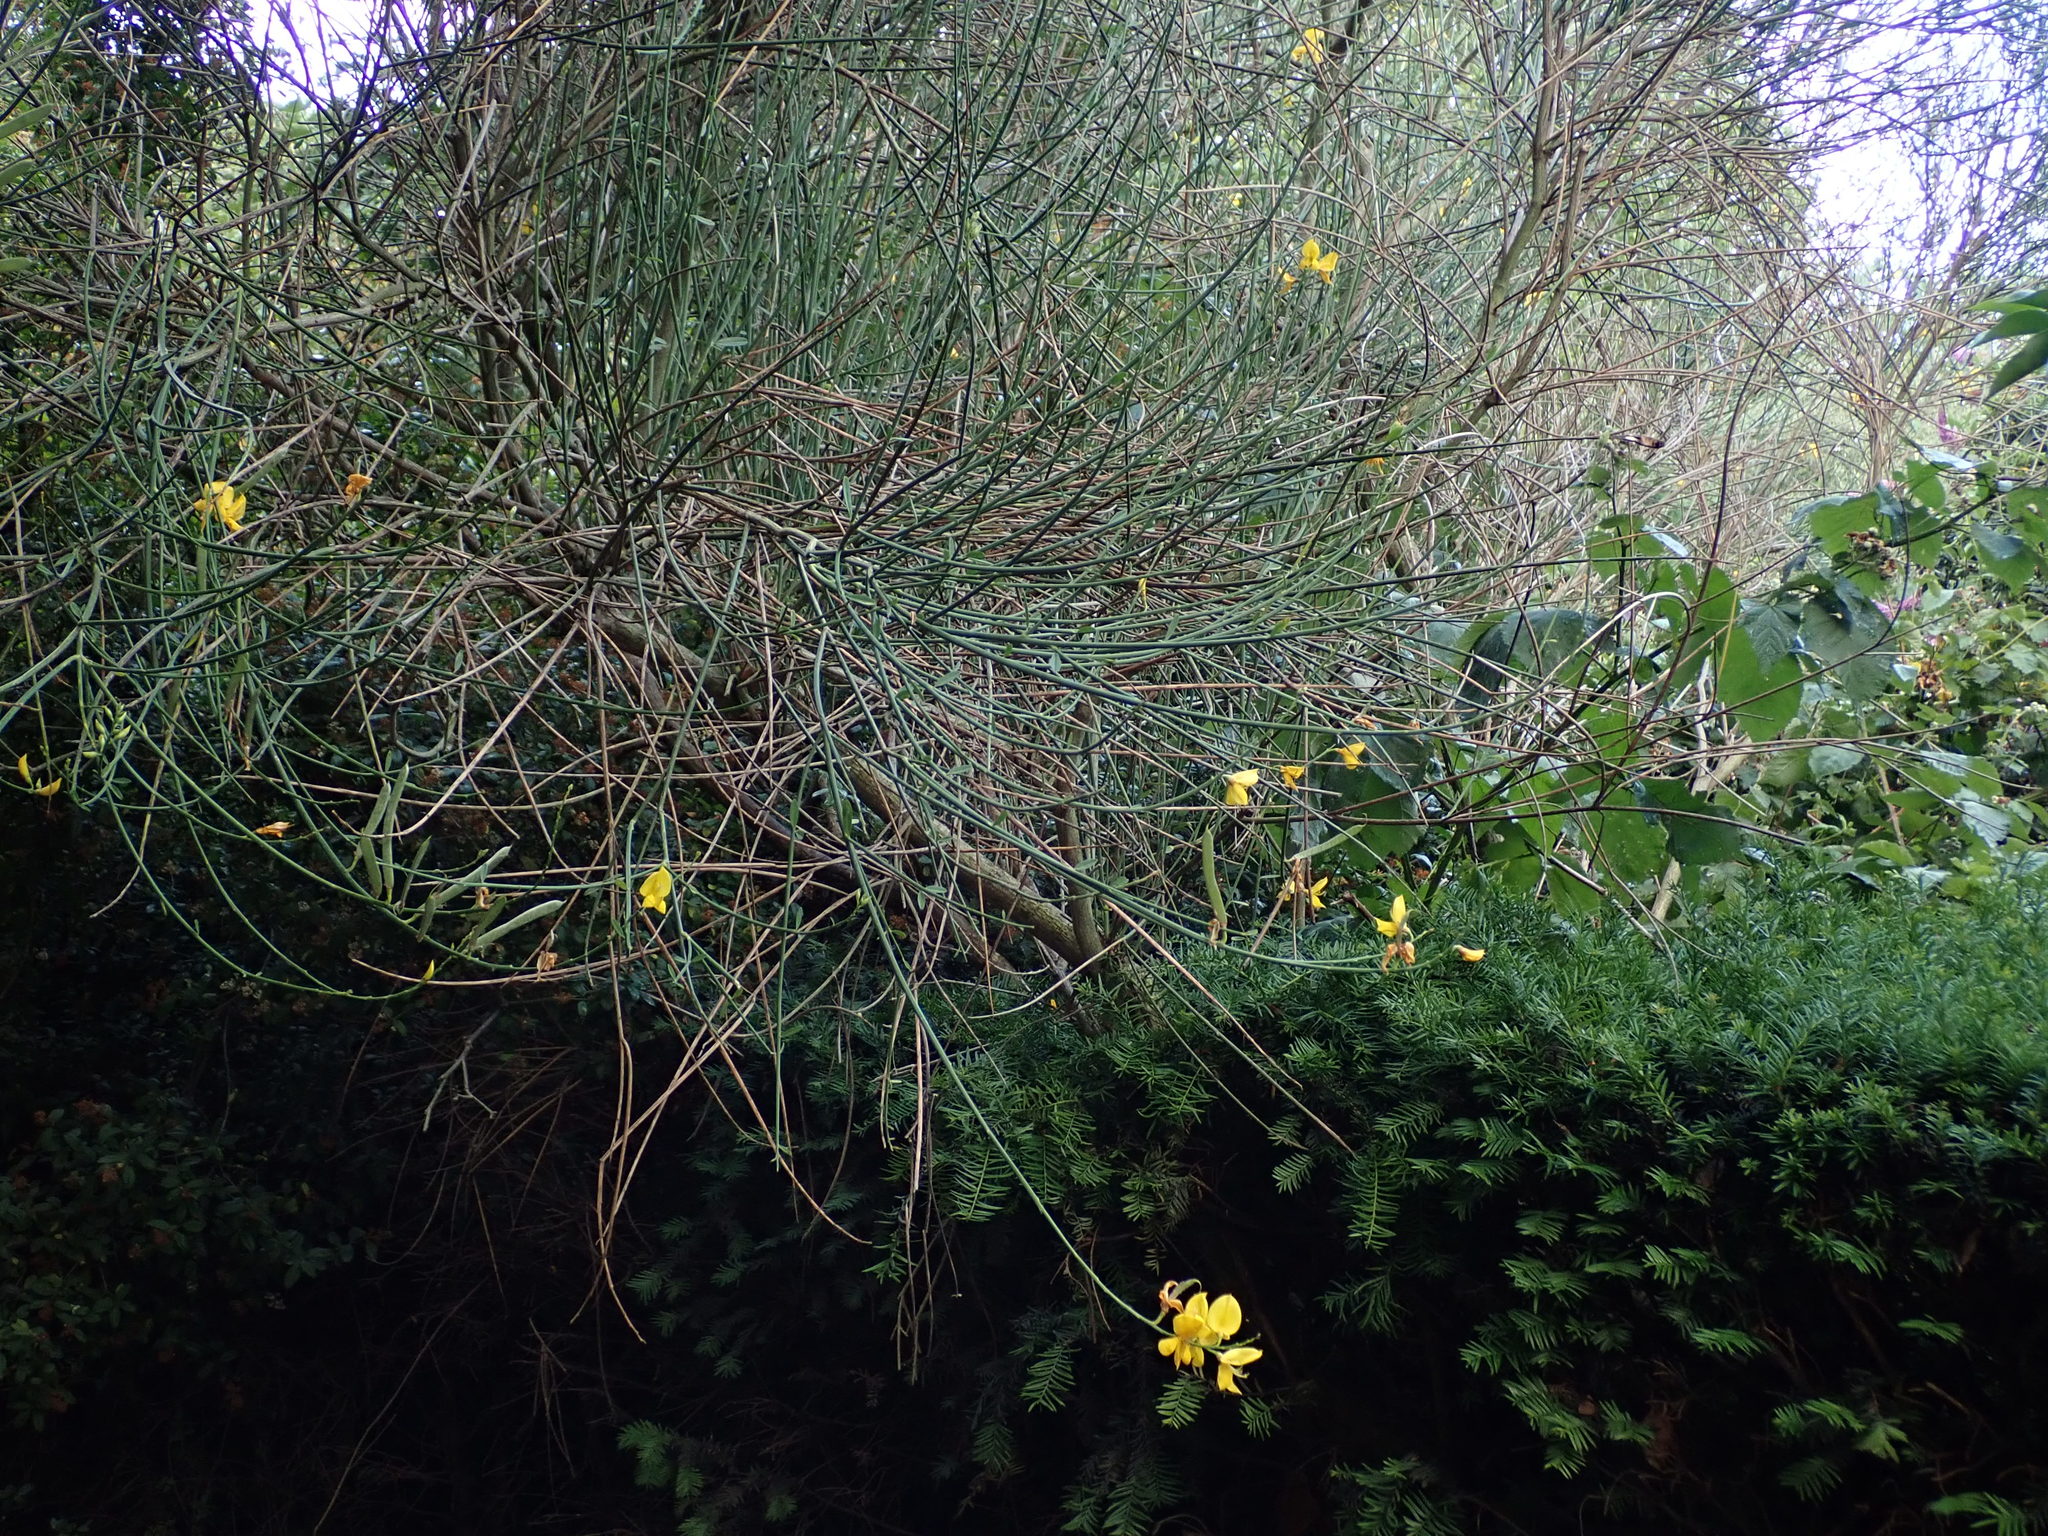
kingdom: Plantae
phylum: Tracheophyta
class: Magnoliopsida
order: Fabales
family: Fabaceae
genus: Spartium
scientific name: Spartium junceum
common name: Spanish broom
